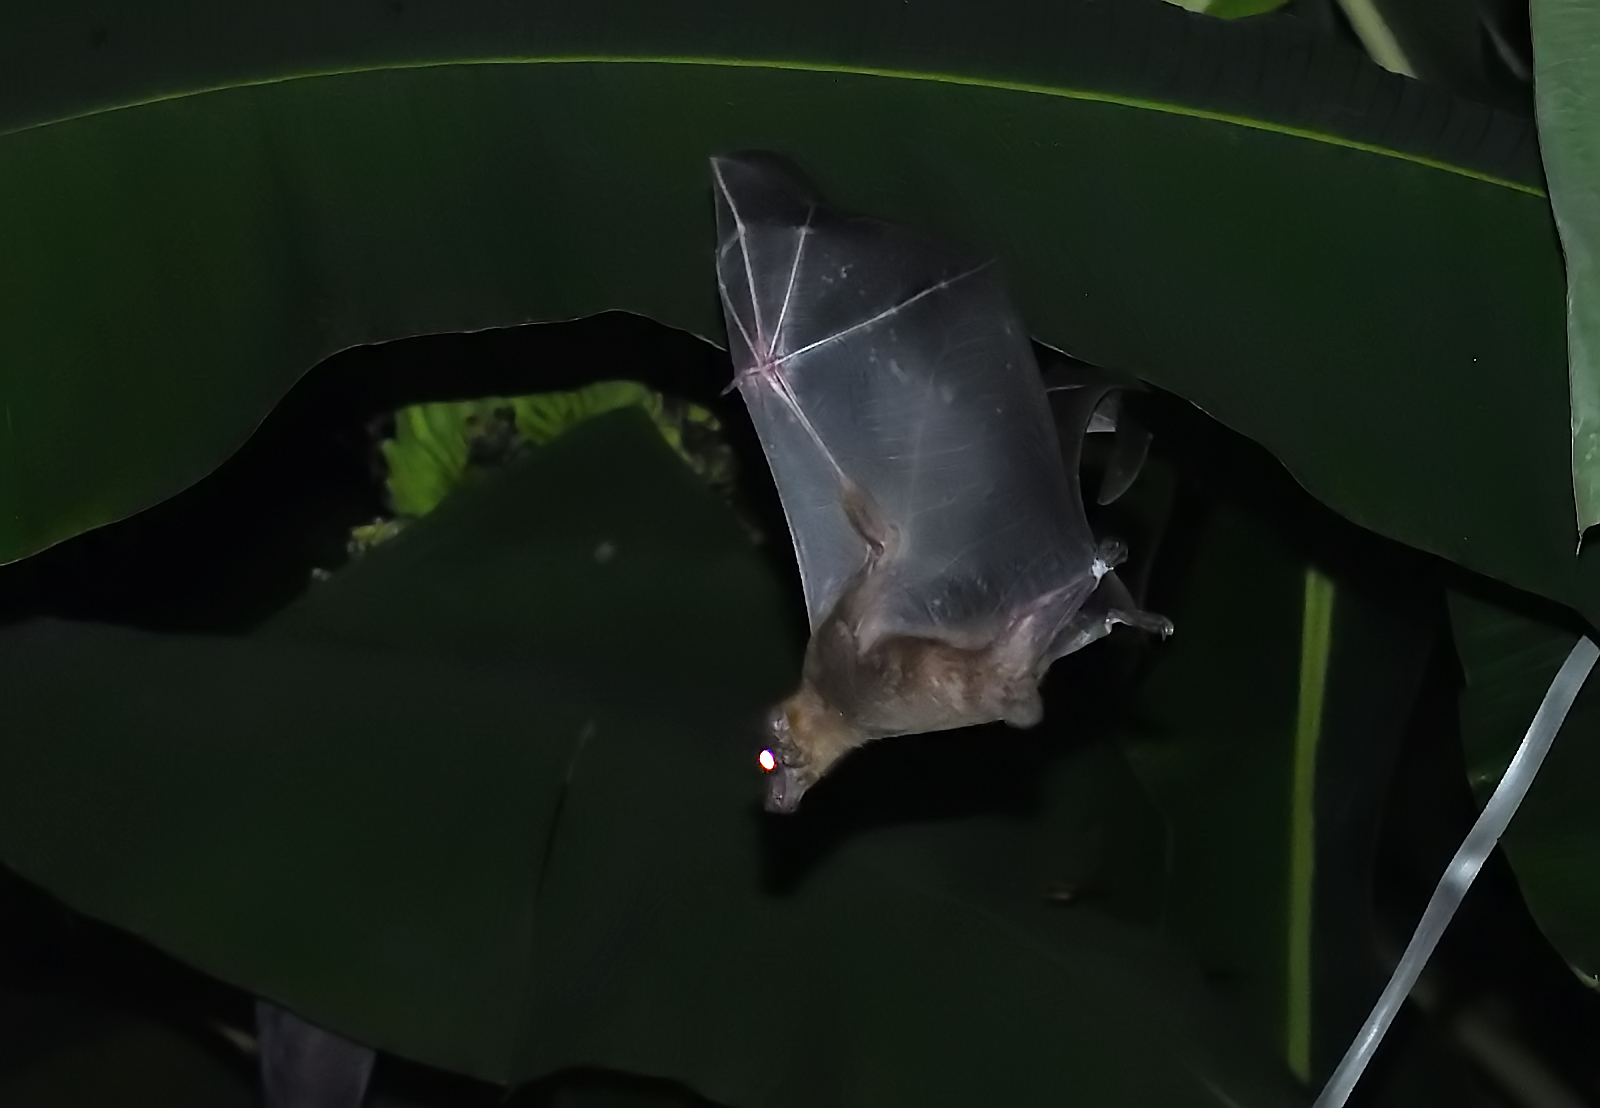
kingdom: Animalia
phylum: Chordata
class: Mammalia
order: Chiroptera
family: Pteropodidae
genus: Cynopterus
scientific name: Cynopterus sphinx
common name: Greater short-nosed fruit bat
